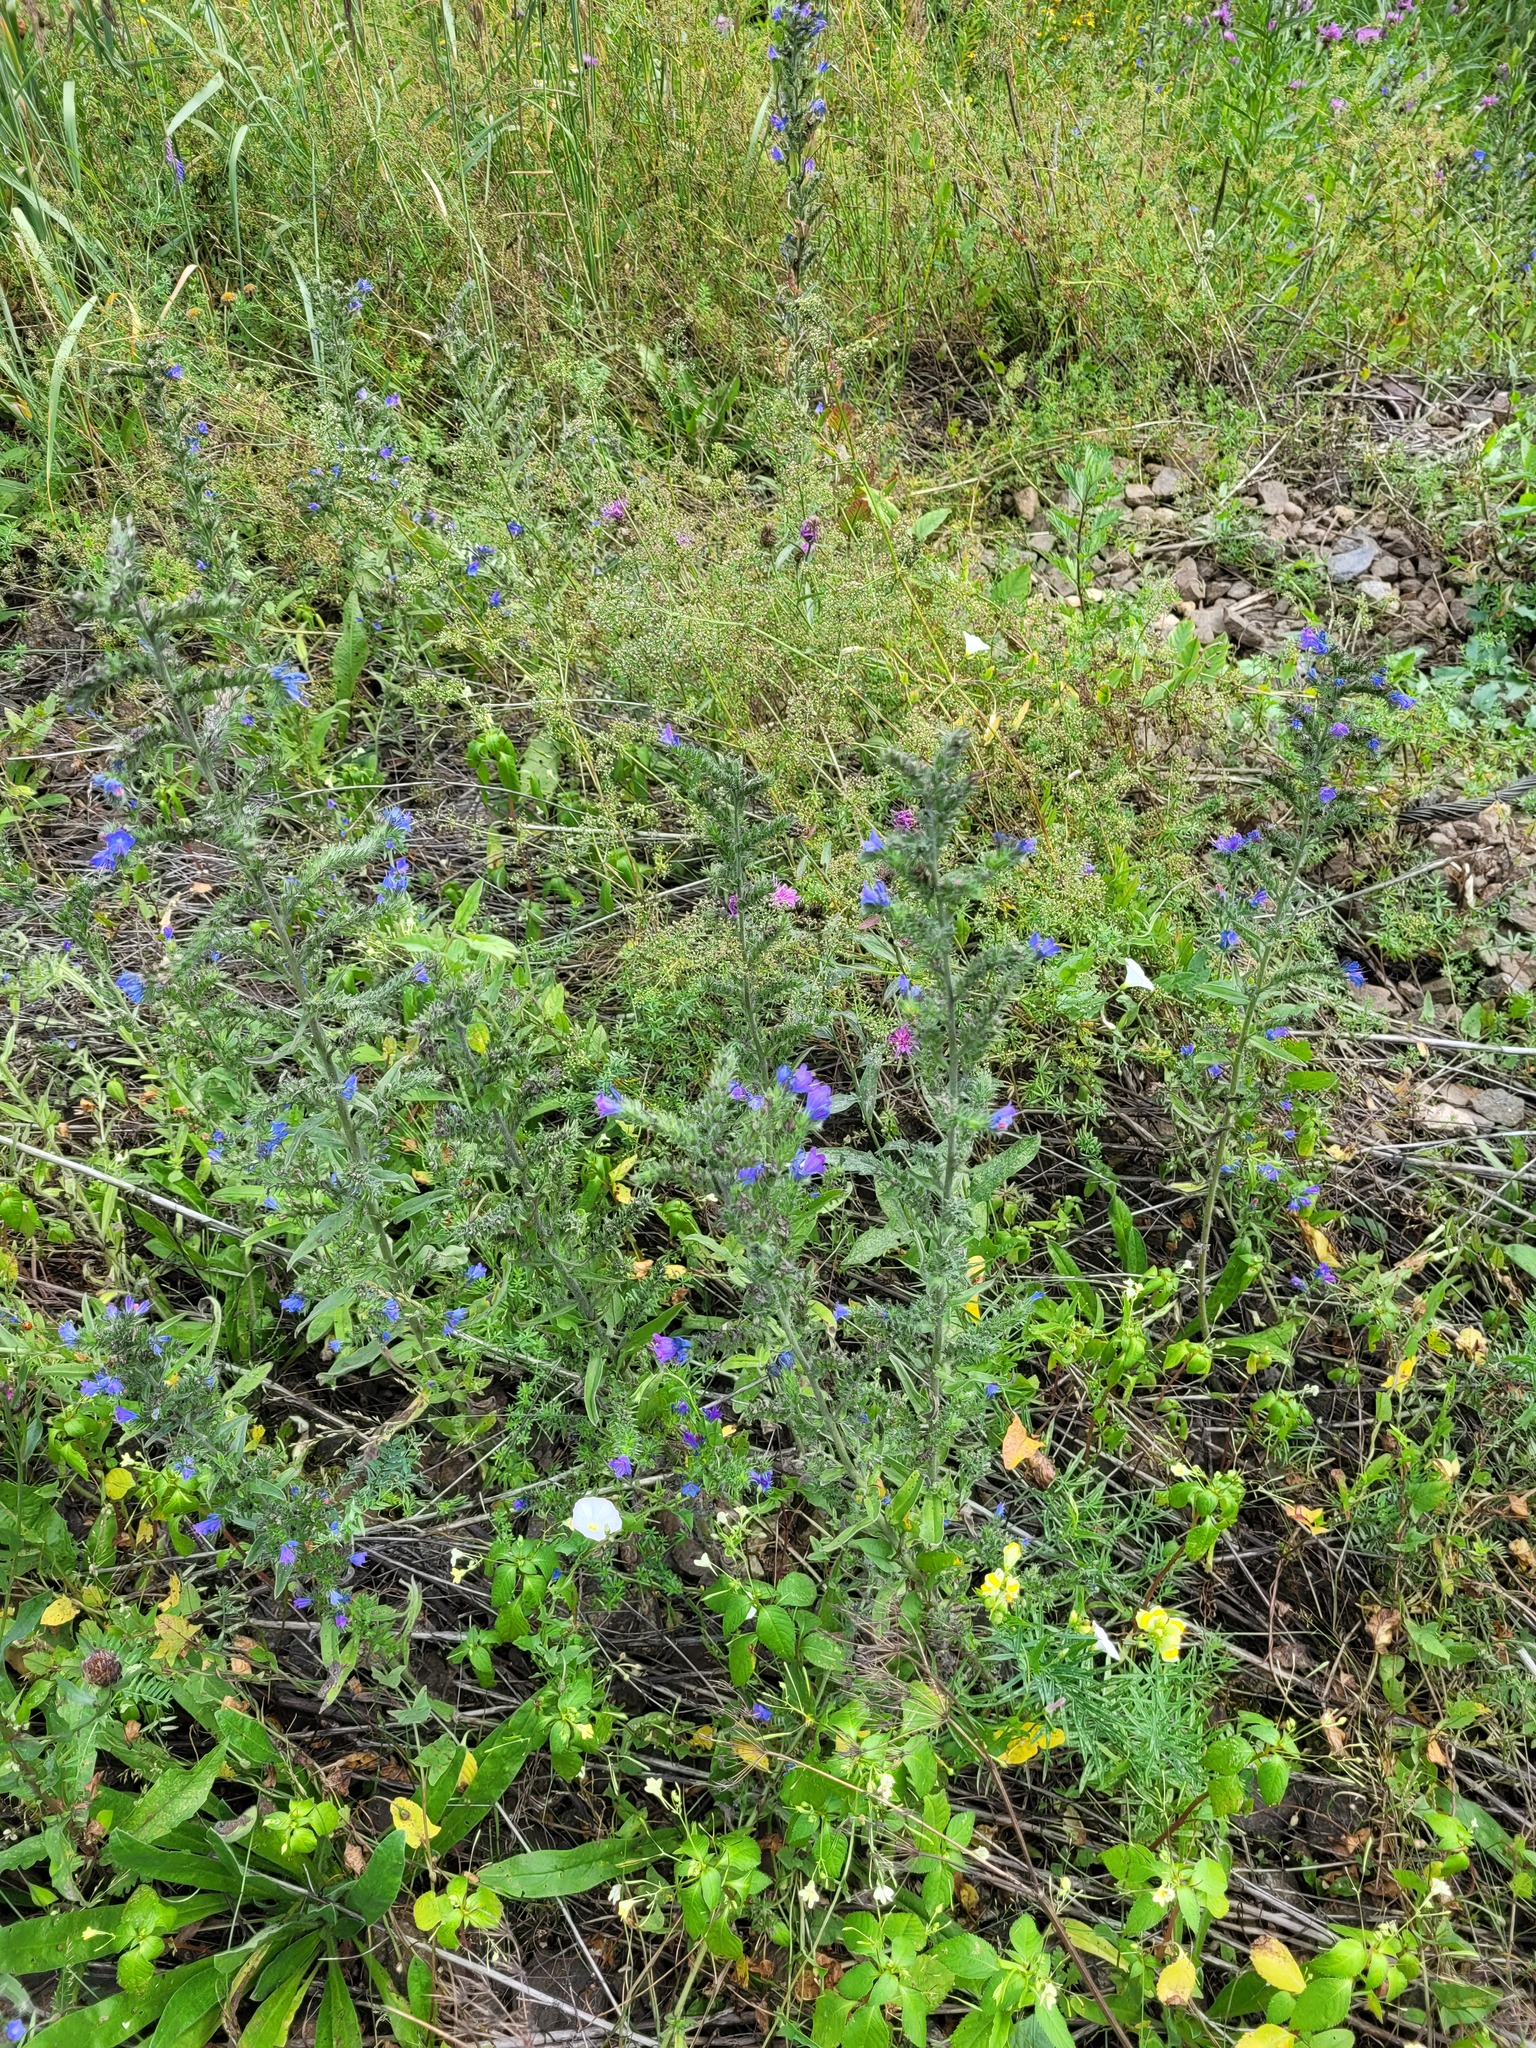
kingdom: Plantae
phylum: Tracheophyta
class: Magnoliopsida
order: Boraginales
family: Boraginaceae
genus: Echium
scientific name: Echium vulgare
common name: Common viper's bugloss
